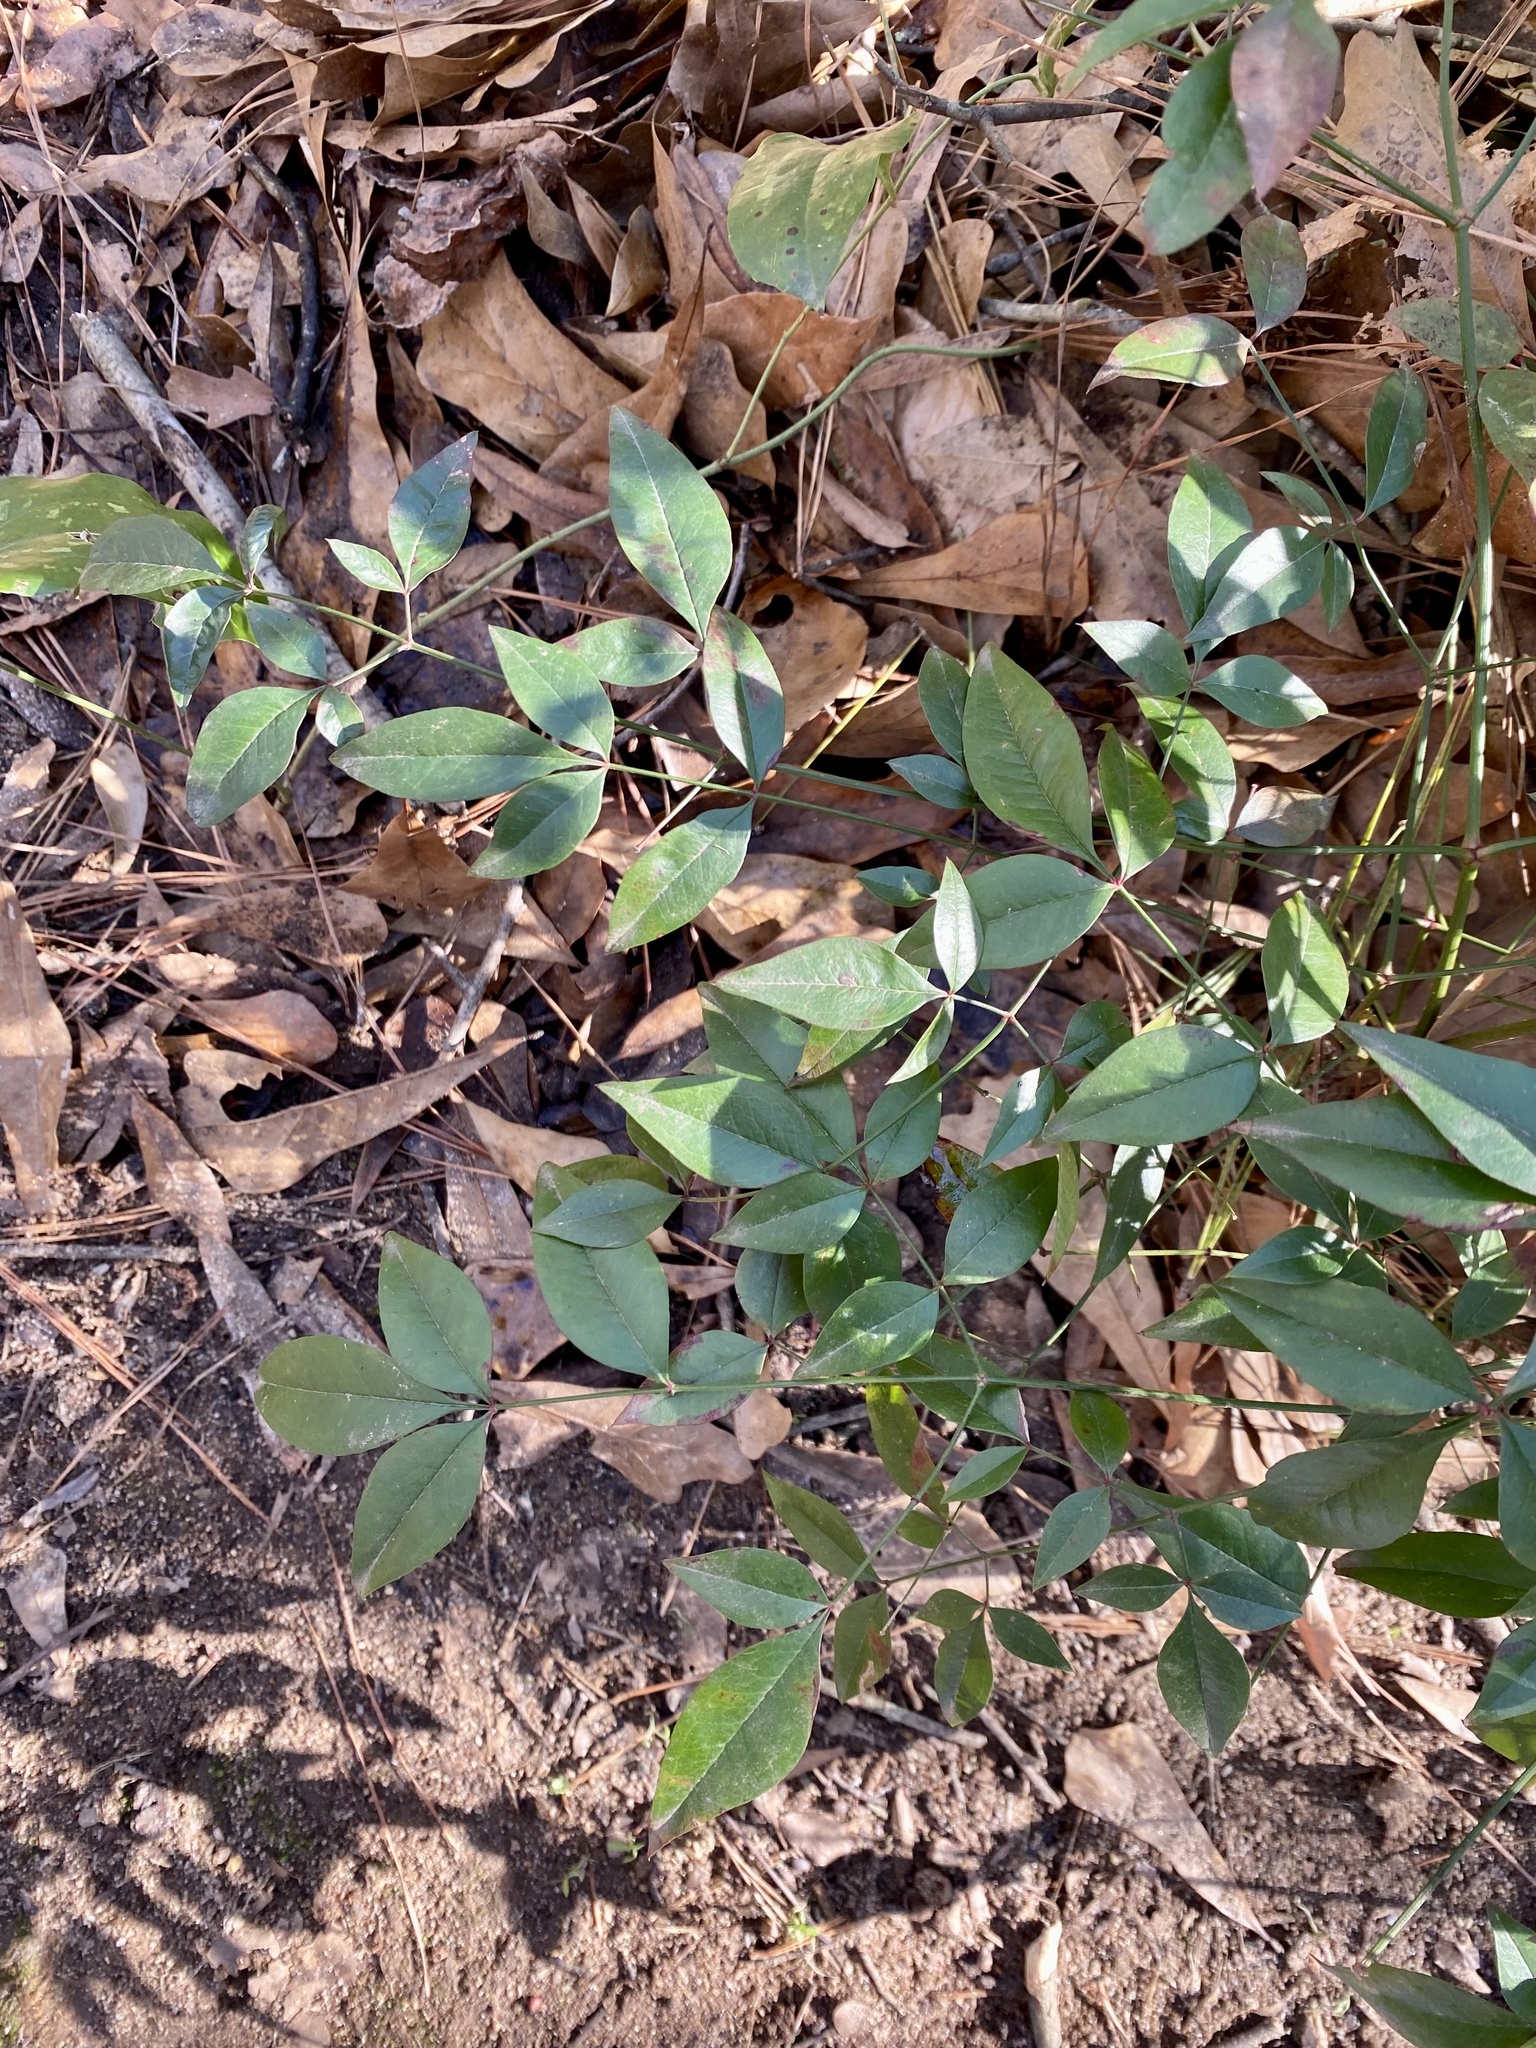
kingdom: Plantae
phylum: Tracheophyta
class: Magnoliopsida
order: Ranunculales
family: Berberidaceae
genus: Nandina
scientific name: Nandina domestica
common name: Sacred bamboo
